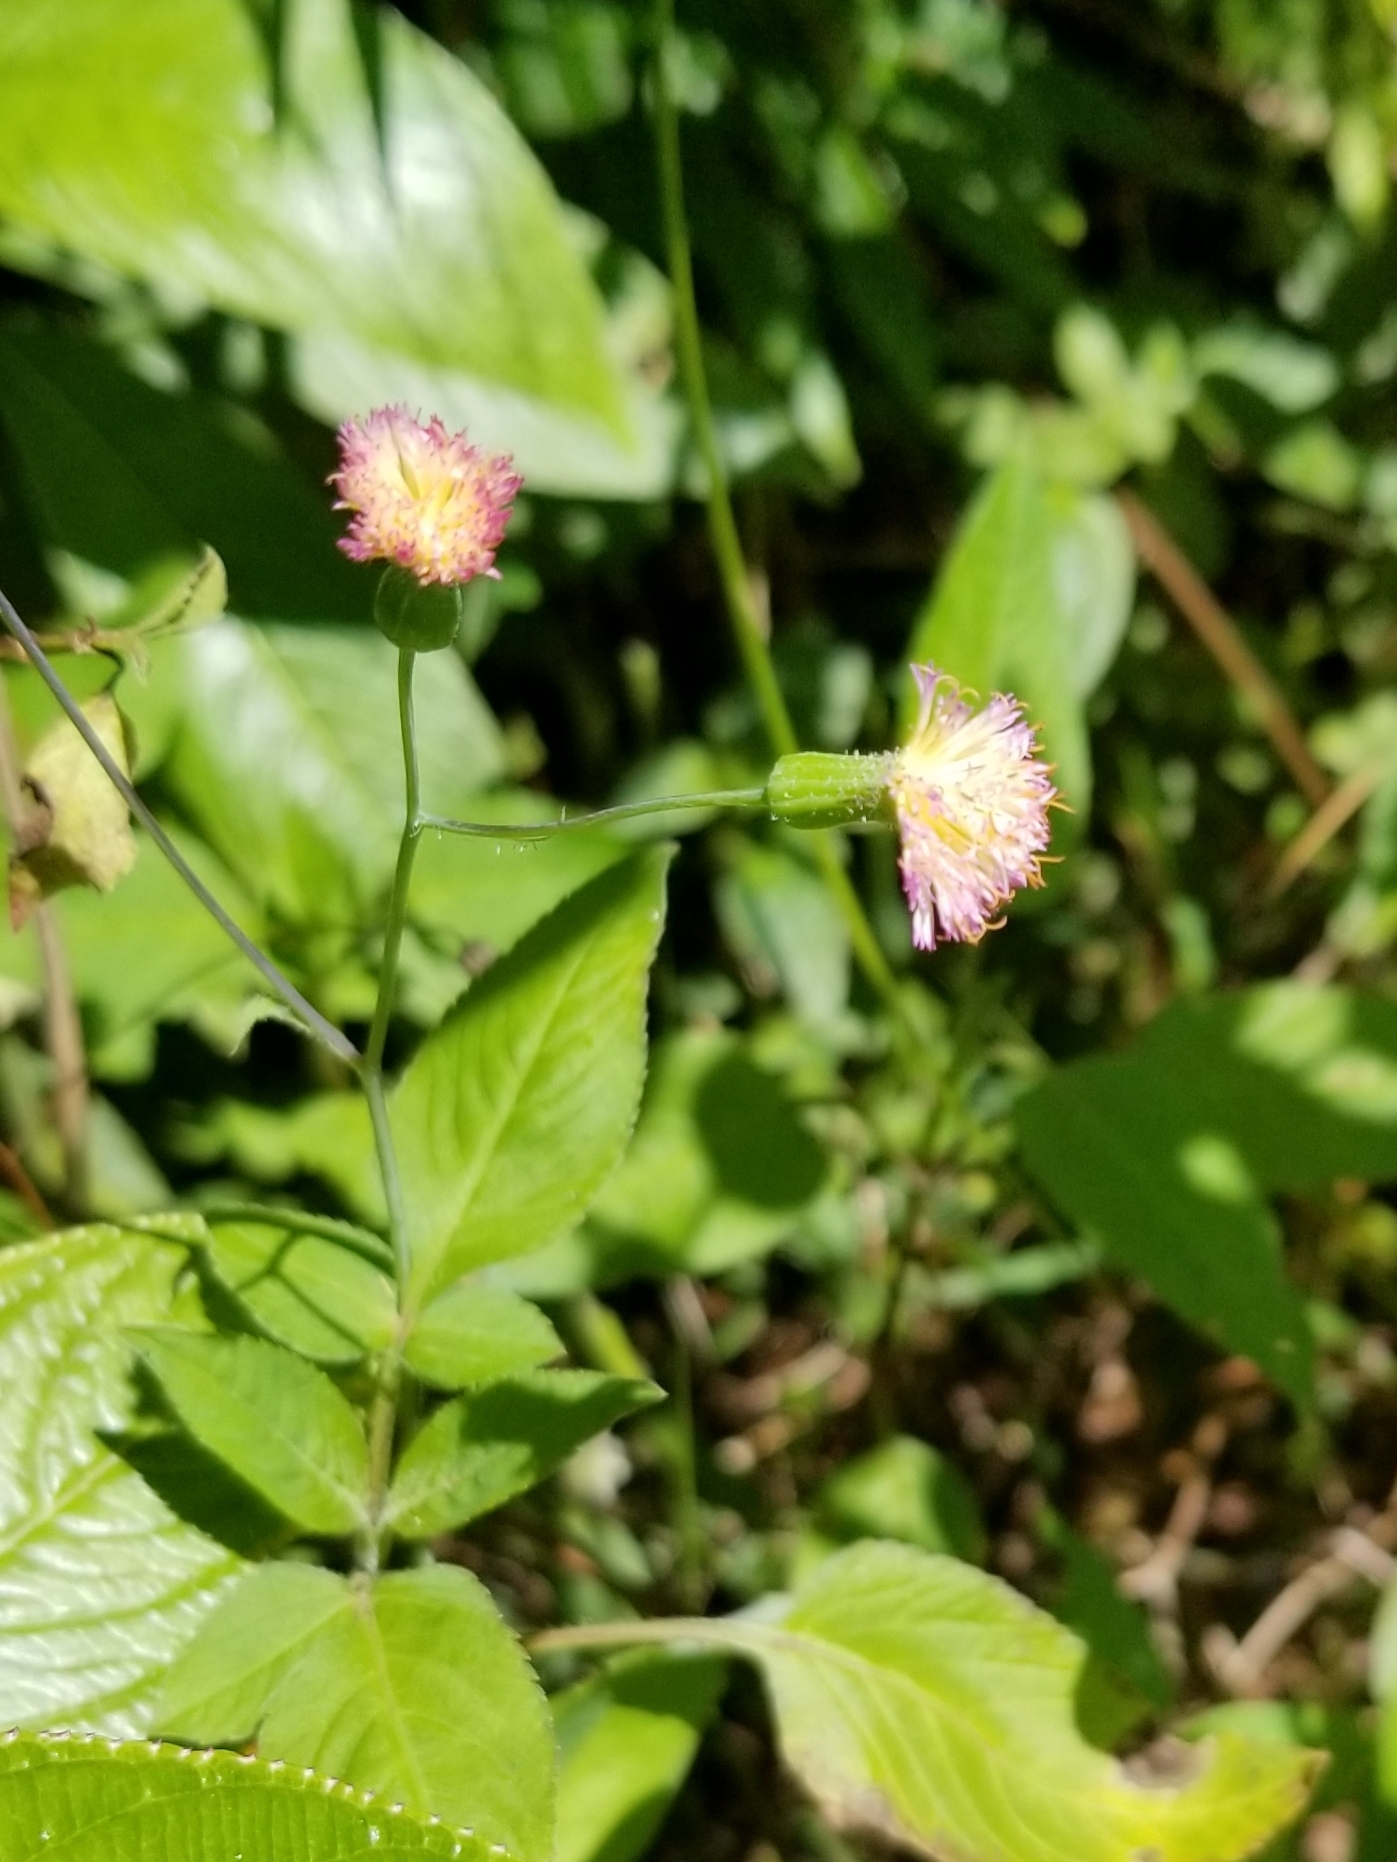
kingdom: Plantae
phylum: Tracheophyta
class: Magnoliopsida
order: Asterales
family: Asteraceae
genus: Emilia
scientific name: Emilia praetermissa
